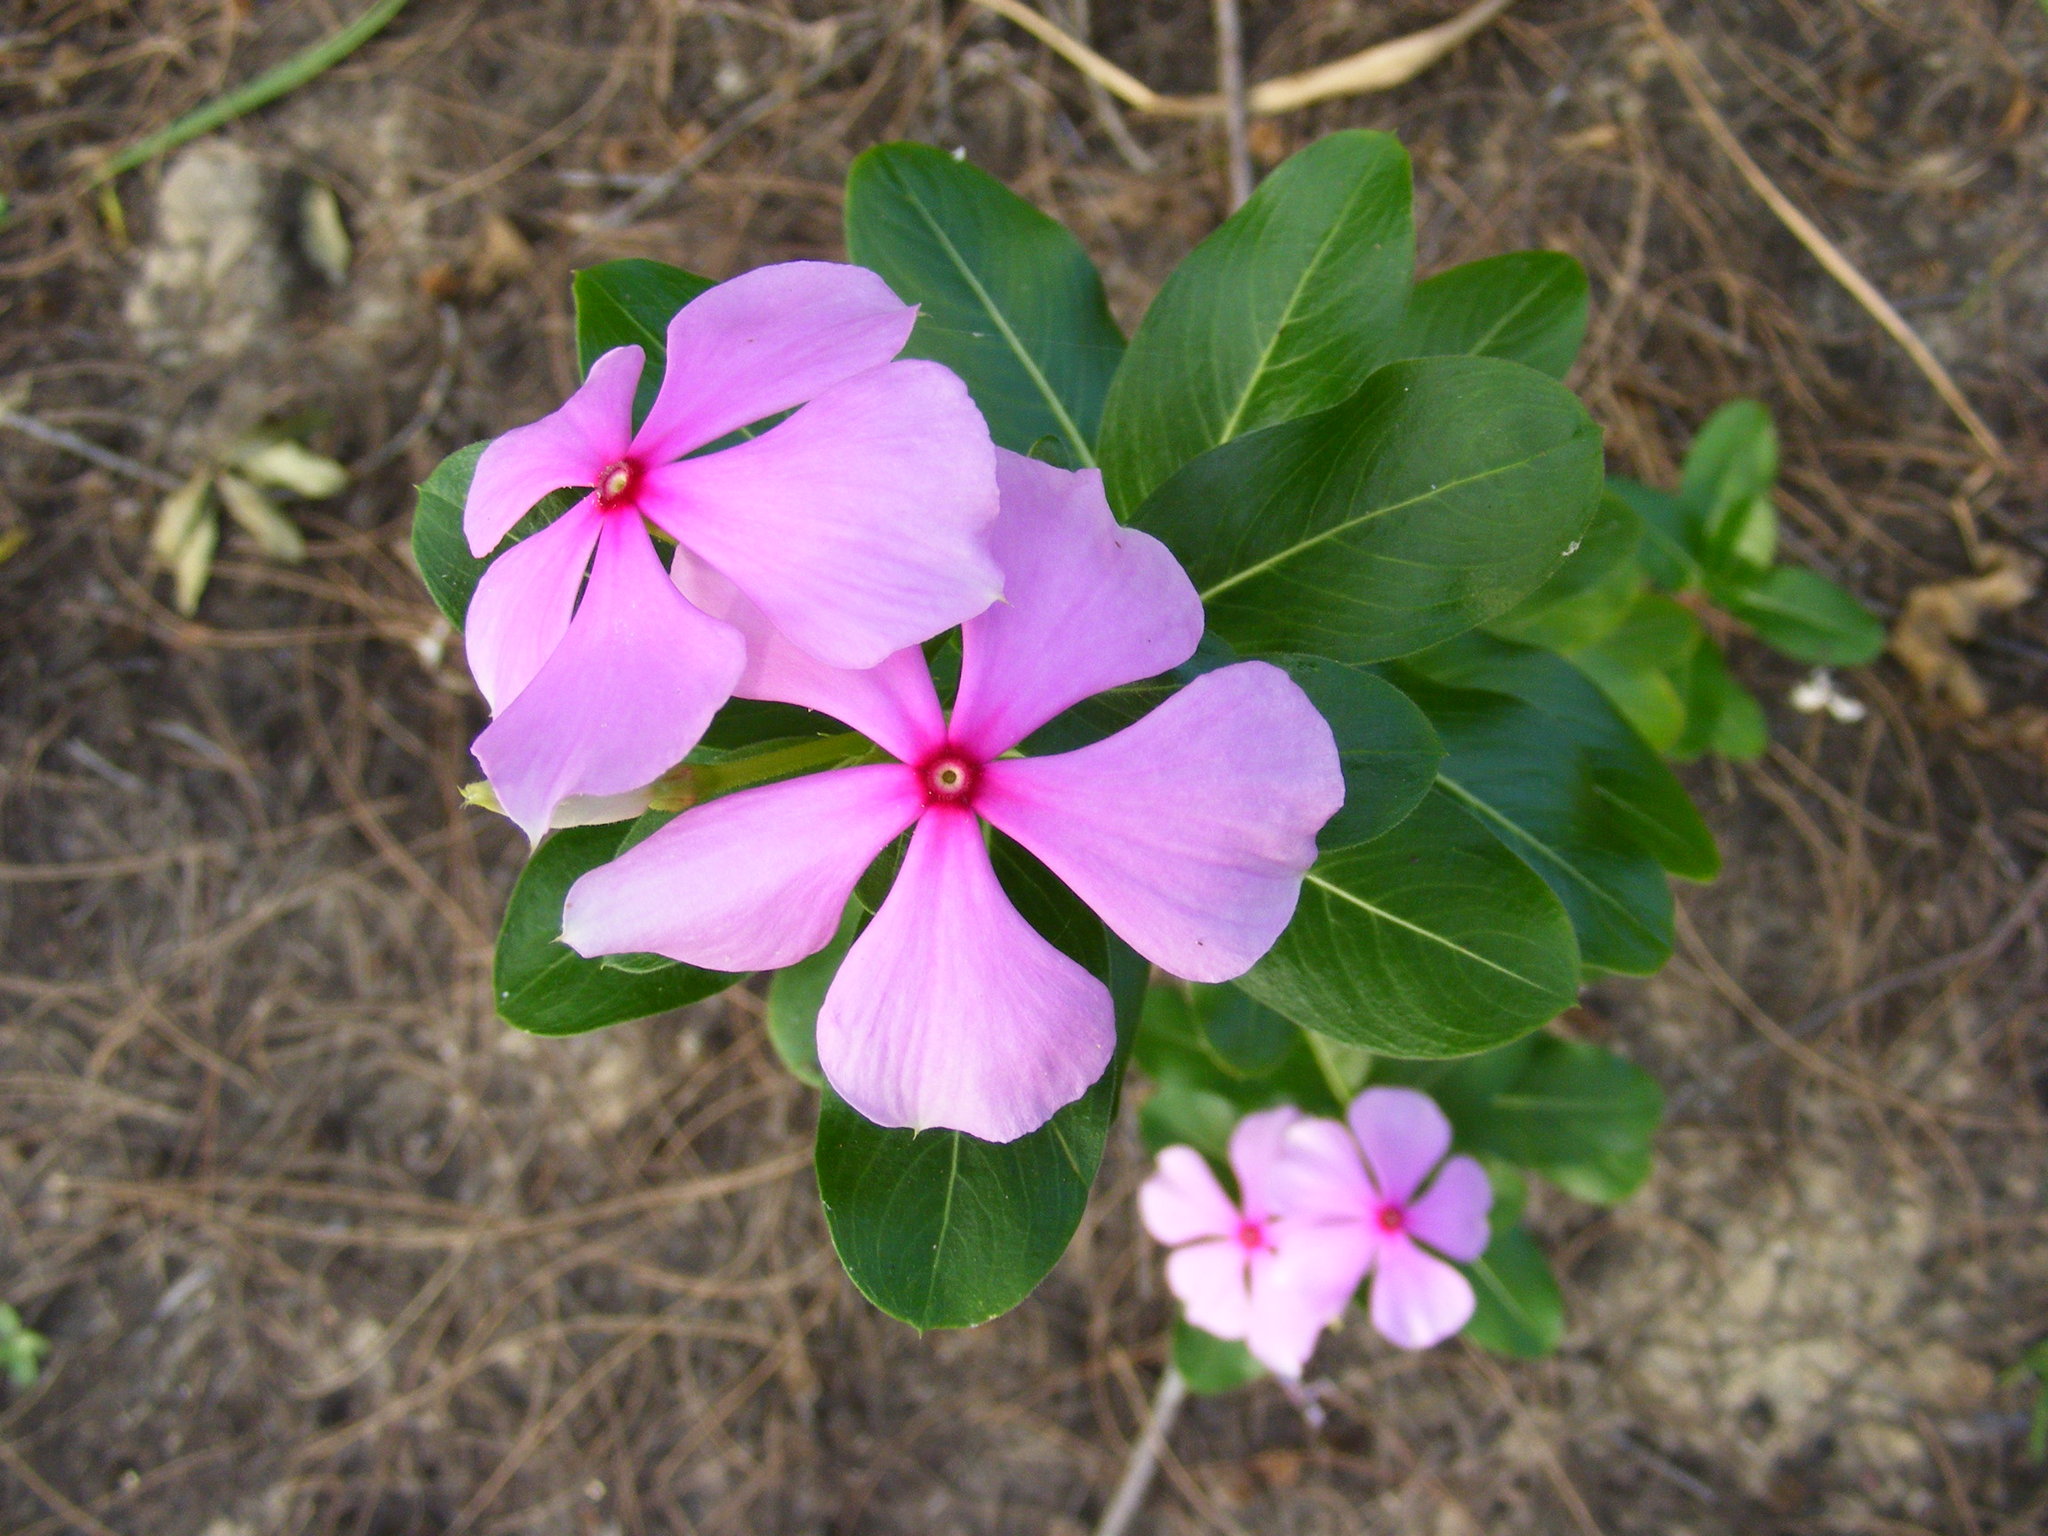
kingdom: Plantae
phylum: Tracheophyta
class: Magnoliopsida
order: Gentianales
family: Apocynaceae
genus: Catharanthus
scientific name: Catharanthus roseus
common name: Madagascar periwinkle
